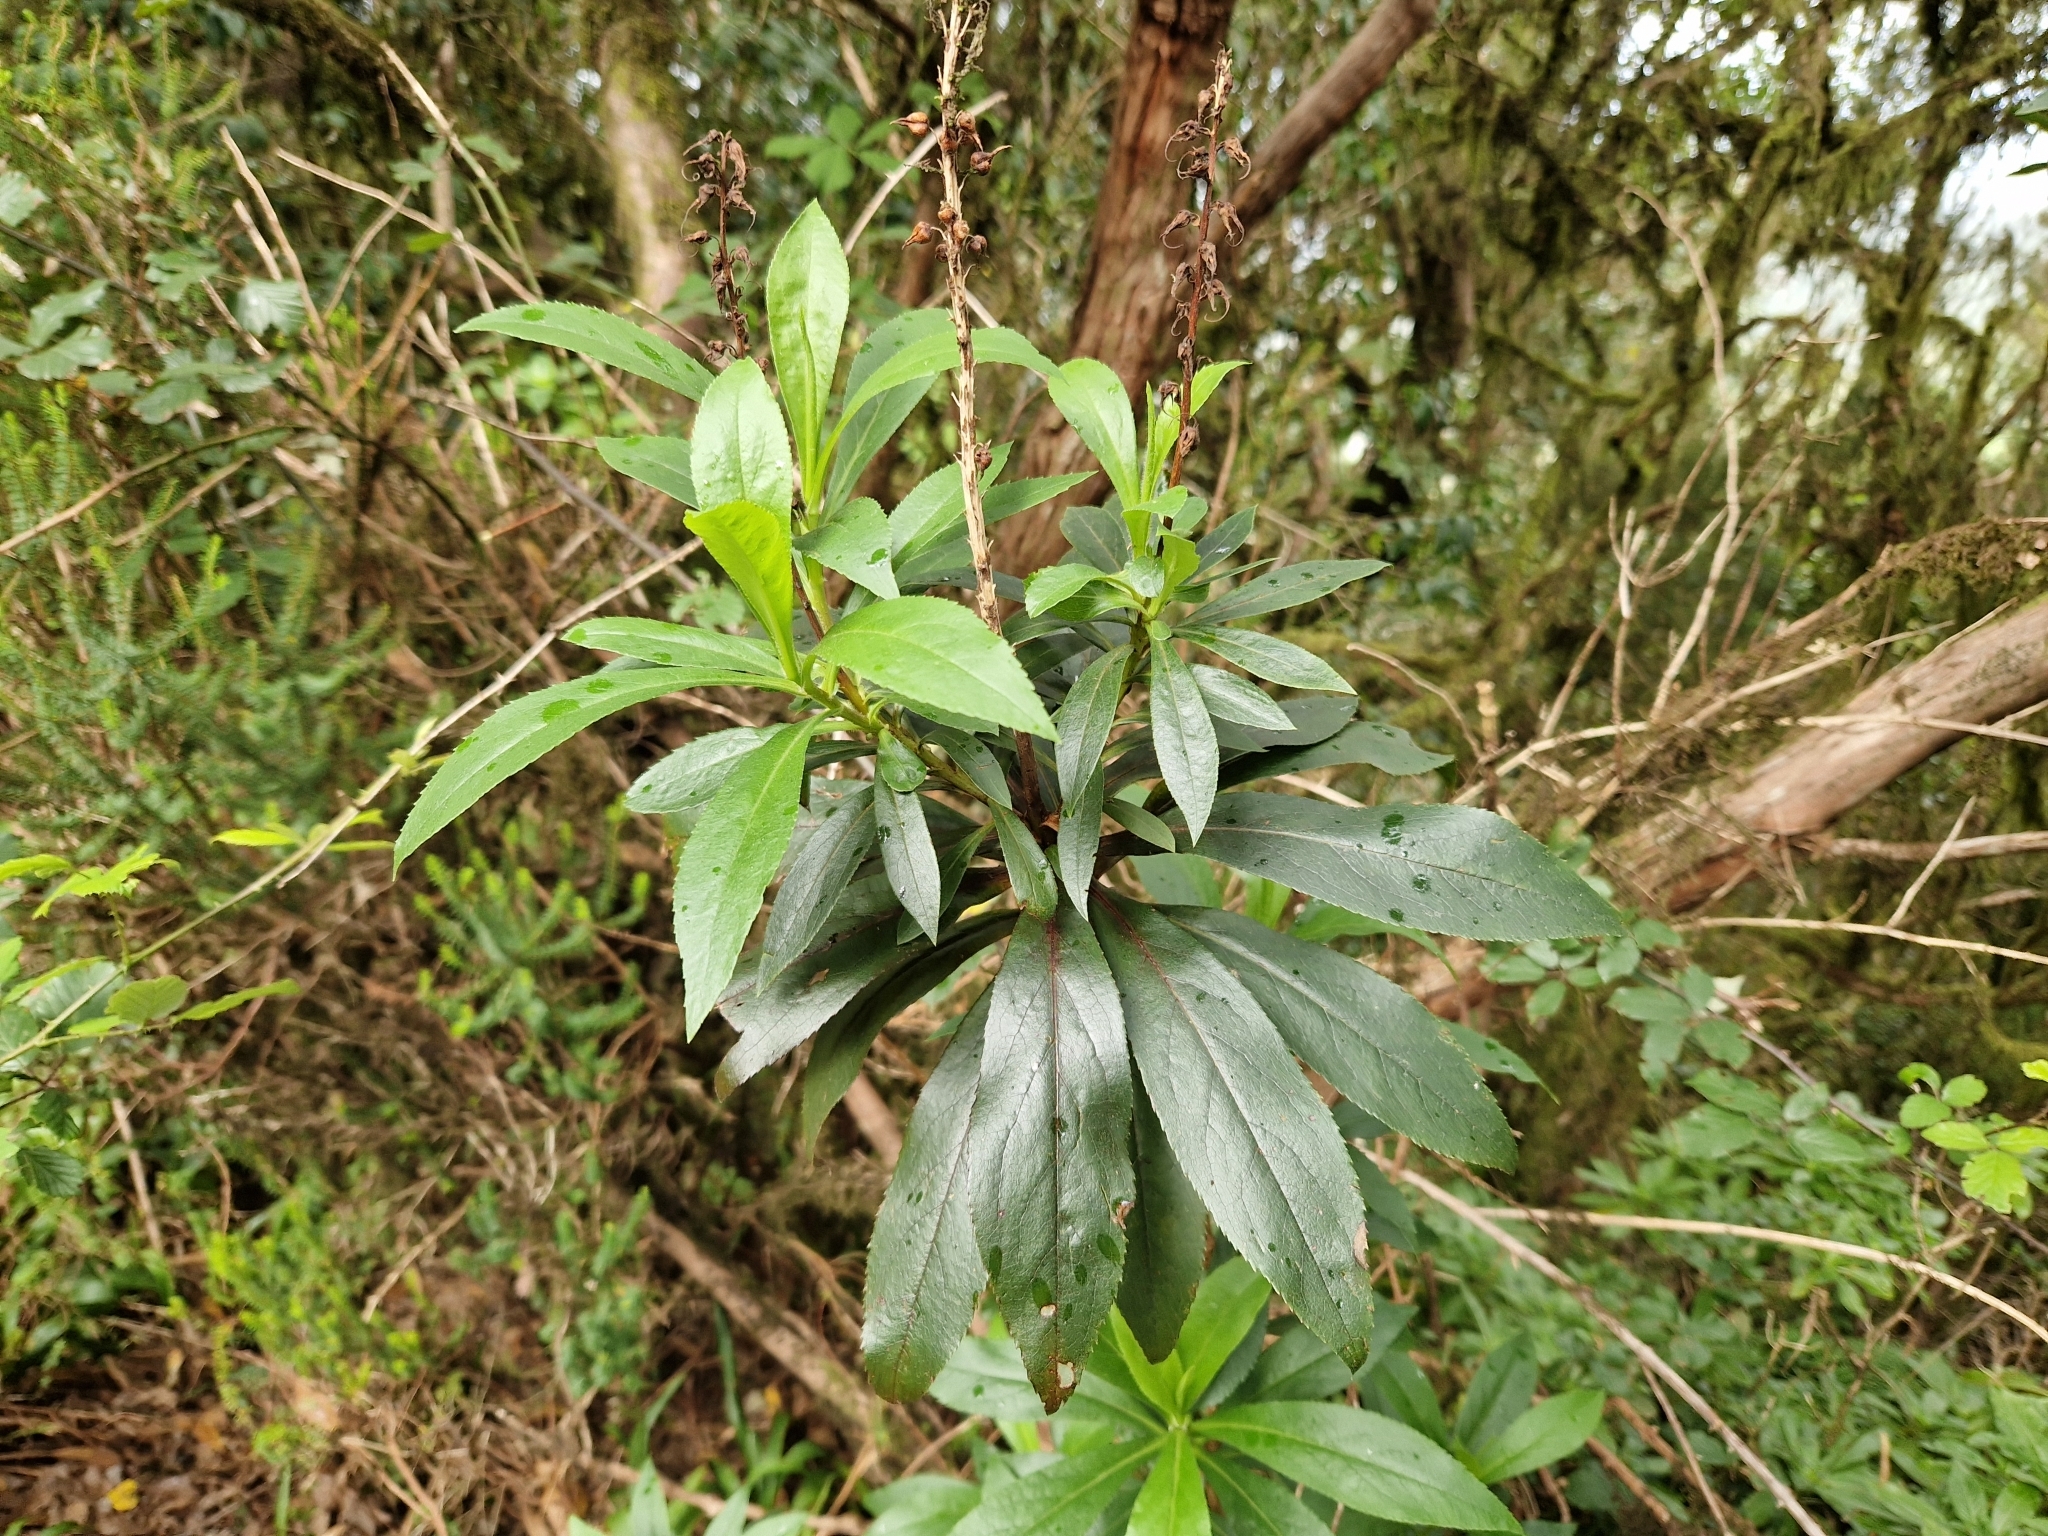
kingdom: Plantae
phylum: Tracheophyta
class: Magnoliopsida
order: Lamiales
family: Plantaginaceae
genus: Digitalis
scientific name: Digitalis canariensis
